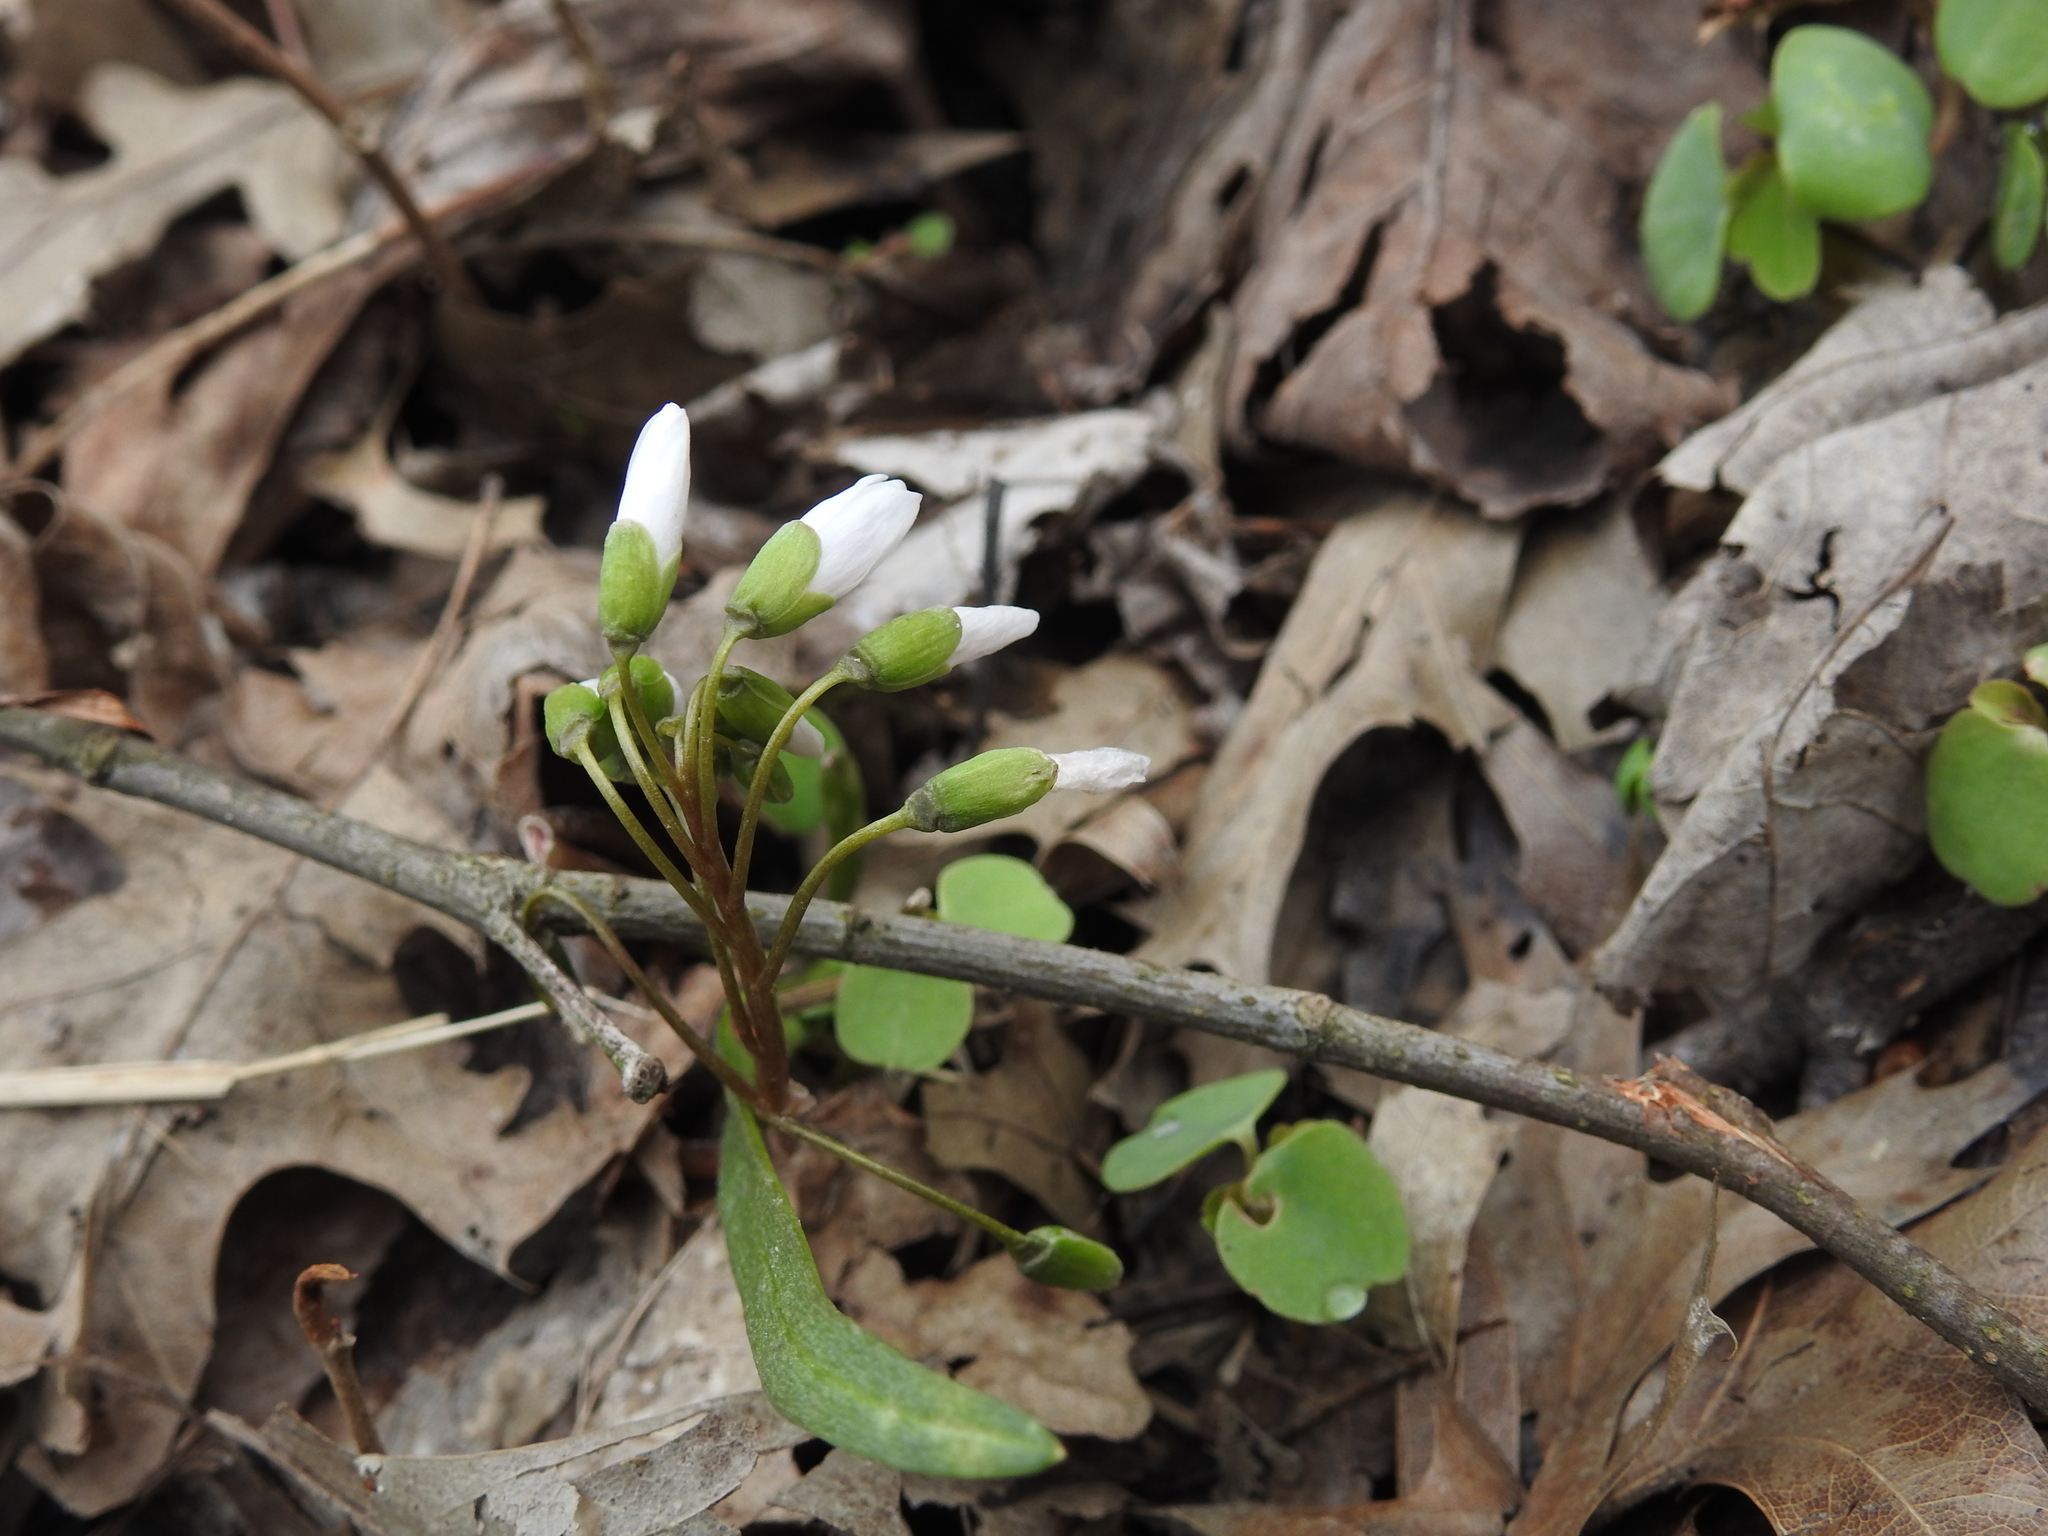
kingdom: Plantae
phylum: Tracheophyta
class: Magnoliopsida
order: Caryophyllales
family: Montiaceae
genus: Claytonia
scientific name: Claytonia virginica
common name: Virginia springbeauty
